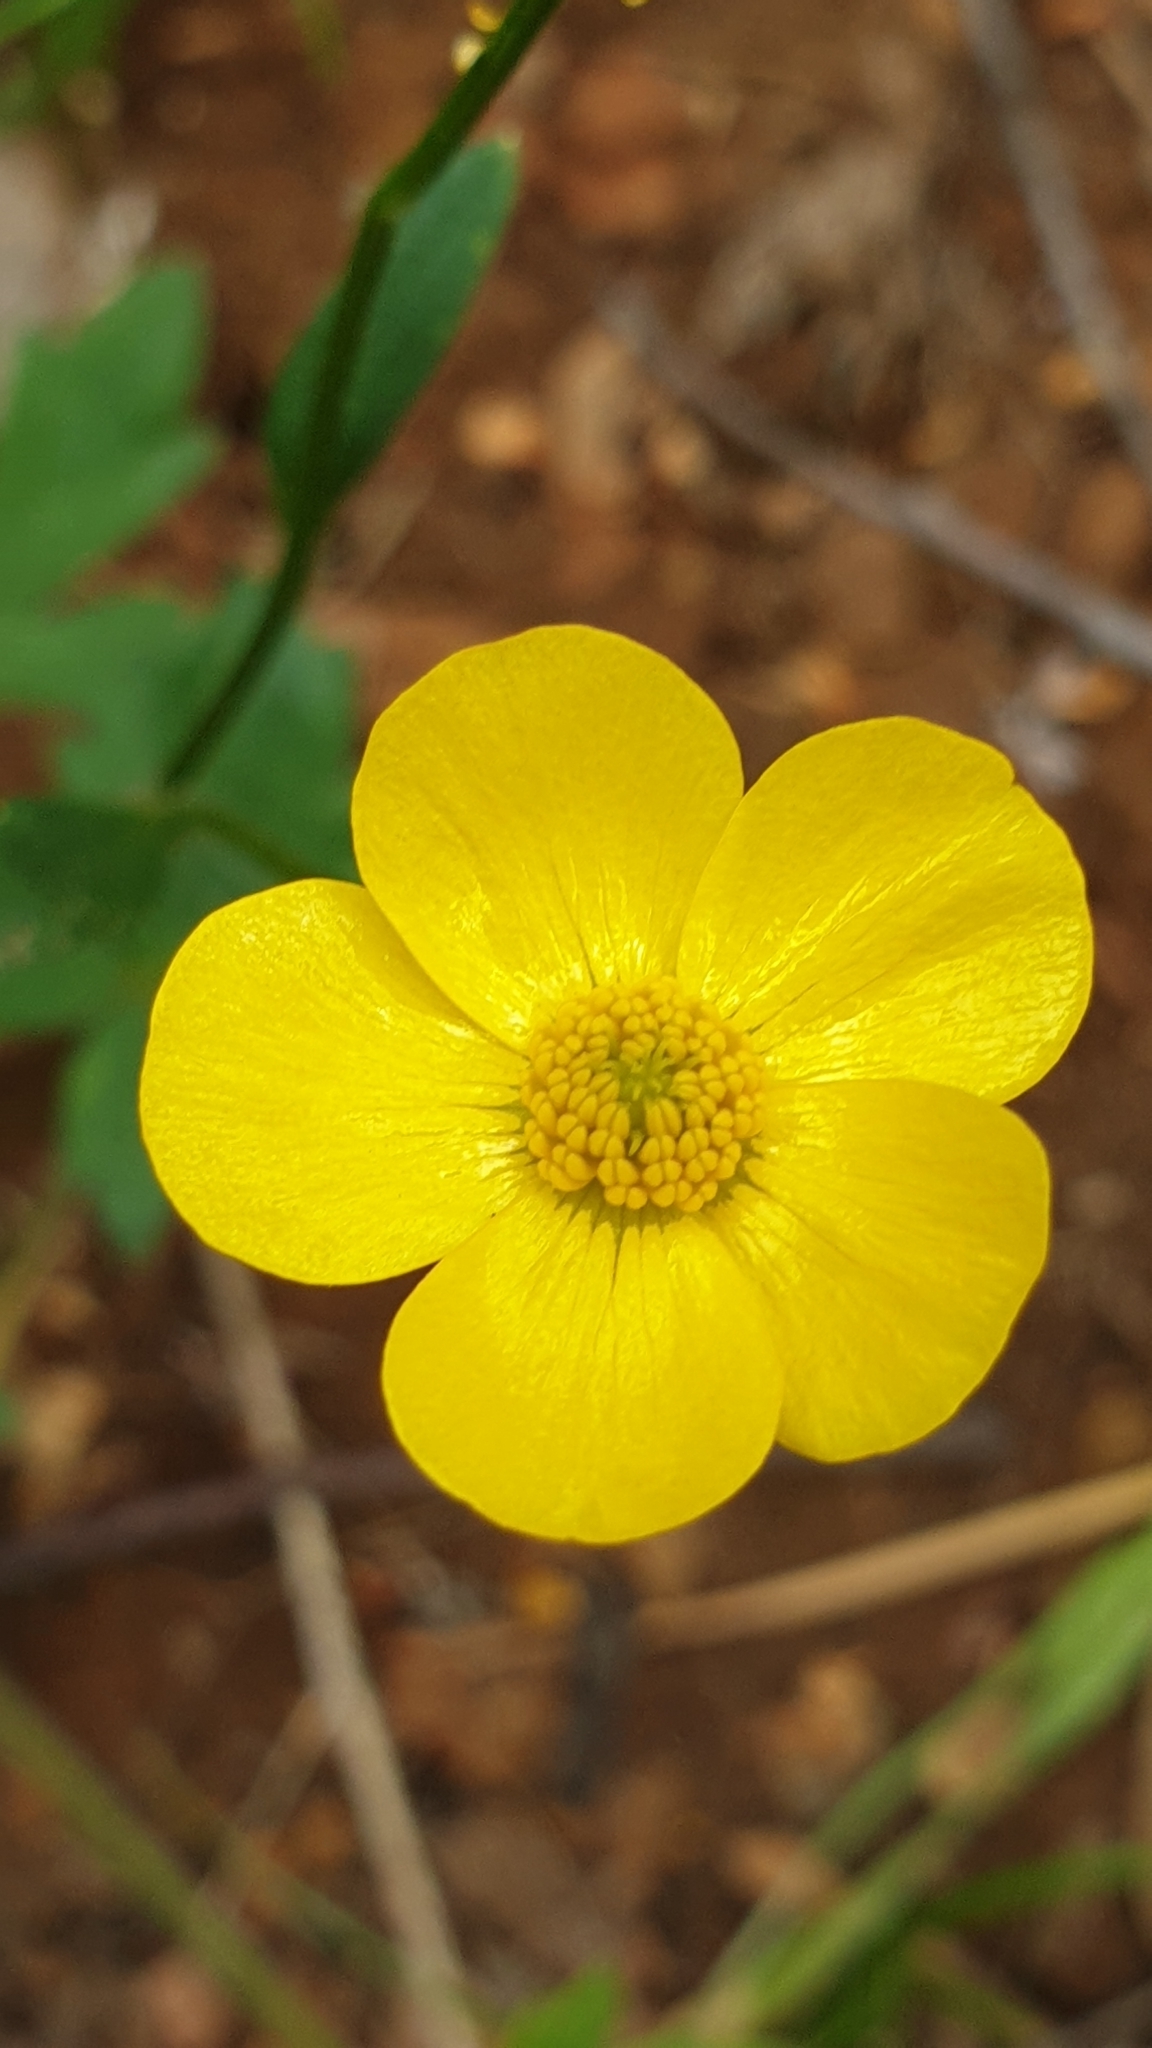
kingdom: Plantae
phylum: Tracheophyta
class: Magnoliopsida
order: Ranunculales
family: Ranunculaceae
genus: Ranunculus
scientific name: Ranunculus lappaceus
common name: Australian buttercup
